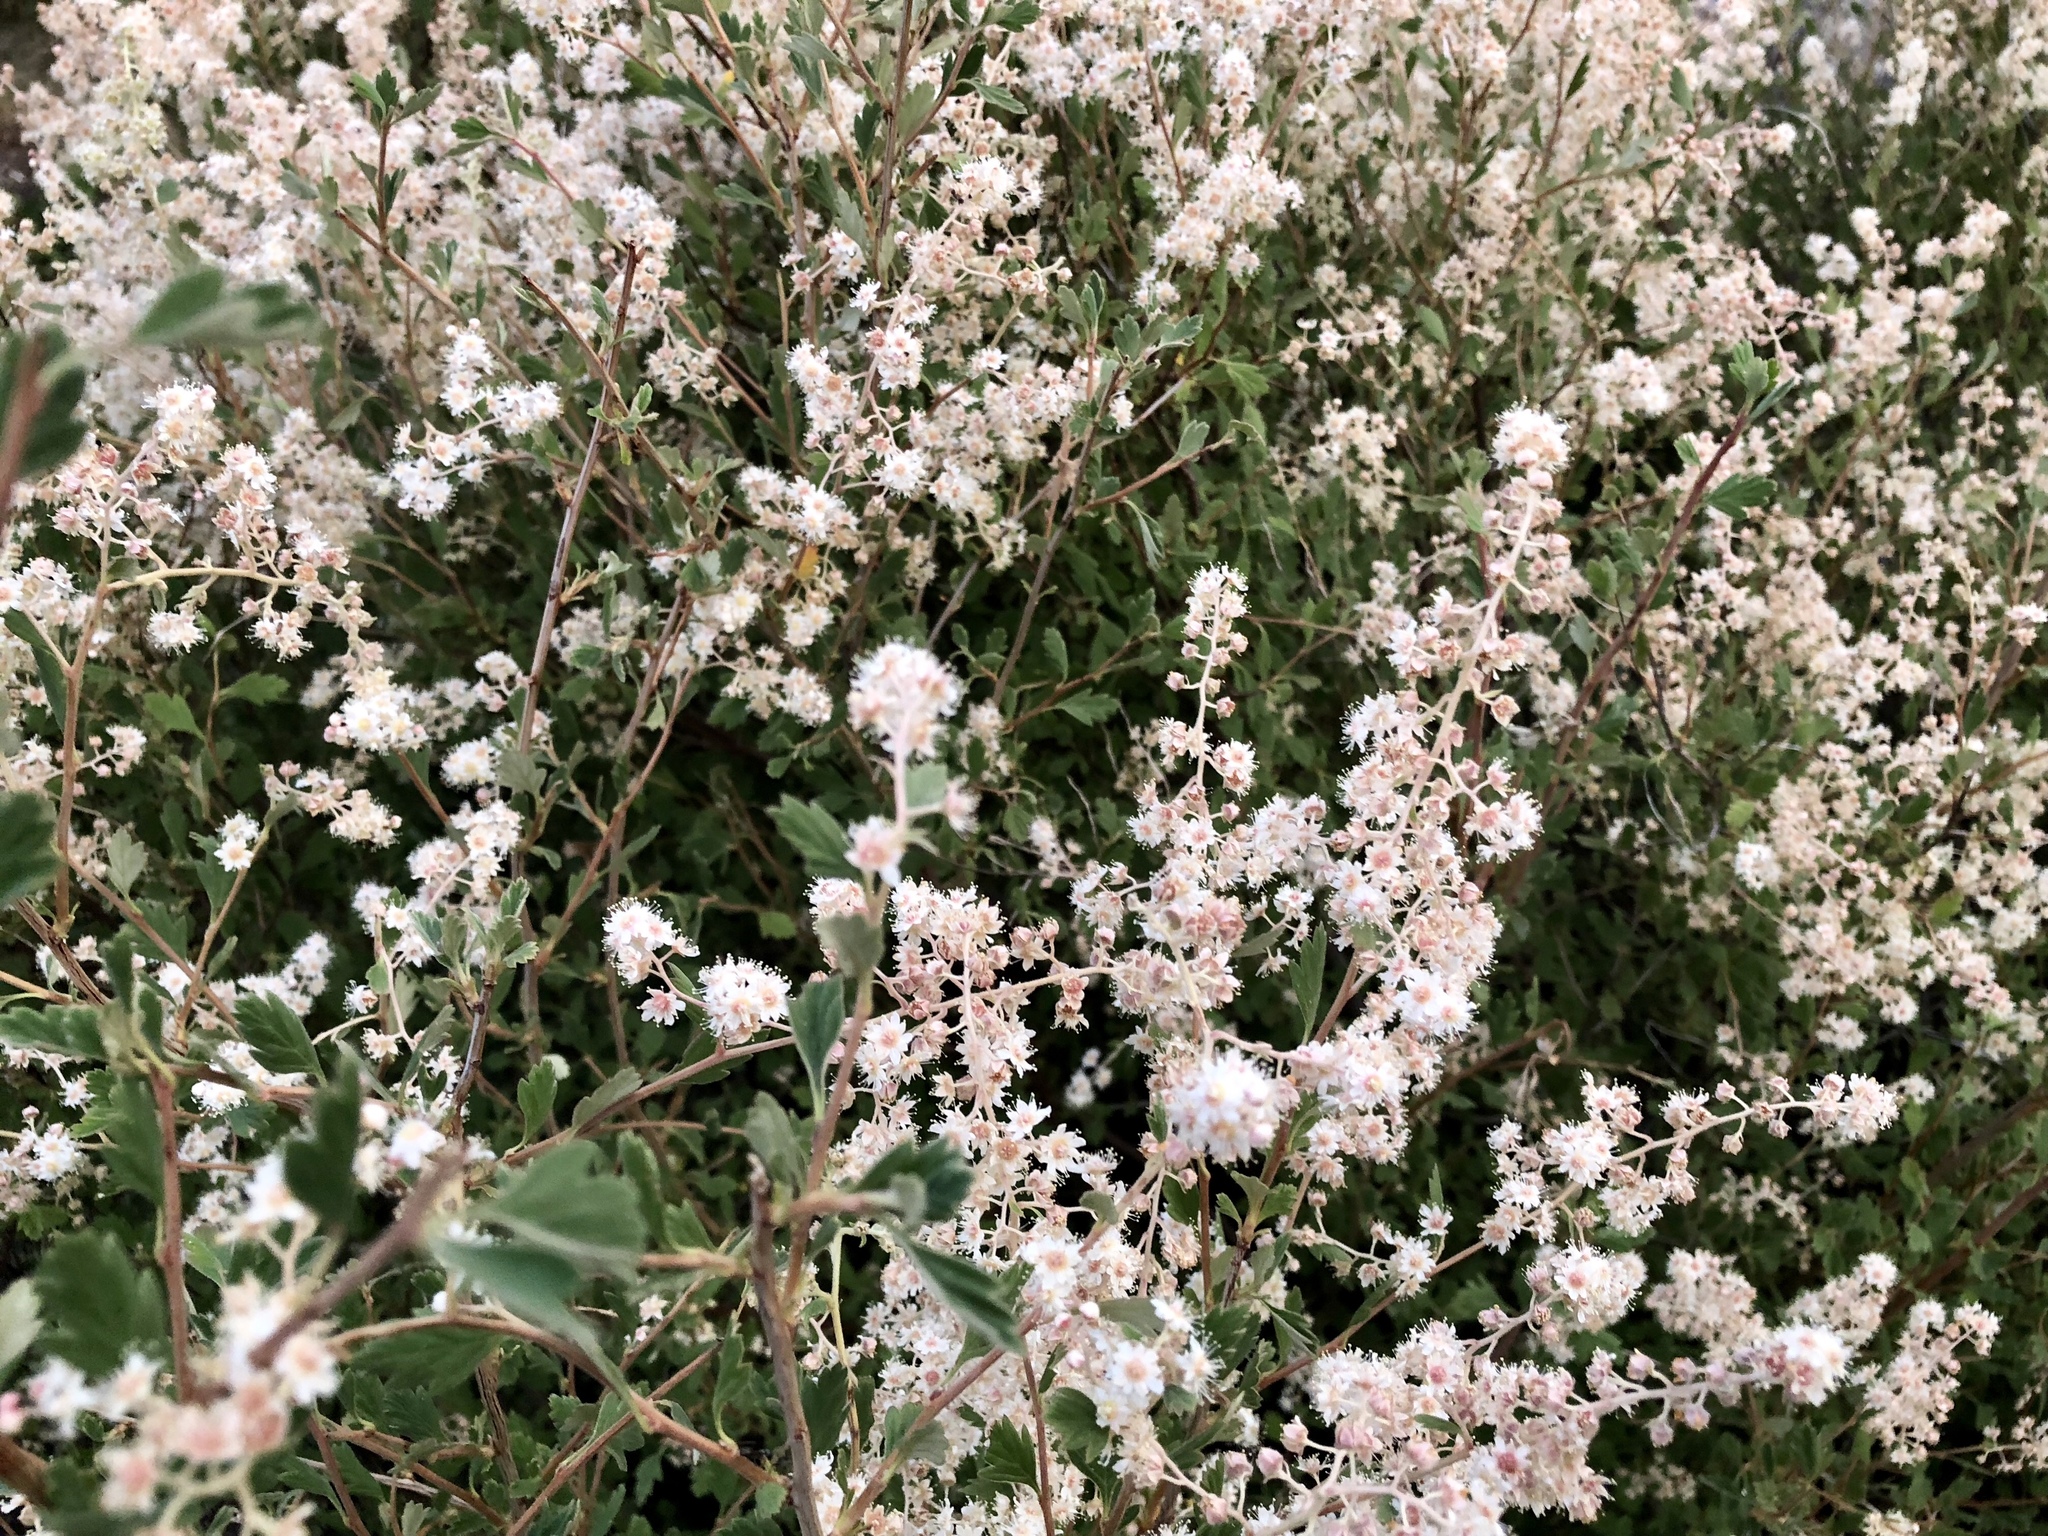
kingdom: Plantae
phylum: Tracheophyta
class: Magnoliopsida
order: Rosales
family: Rosaceae
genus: Holodiscus
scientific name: Holodiscus discolor
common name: Oceanspray
